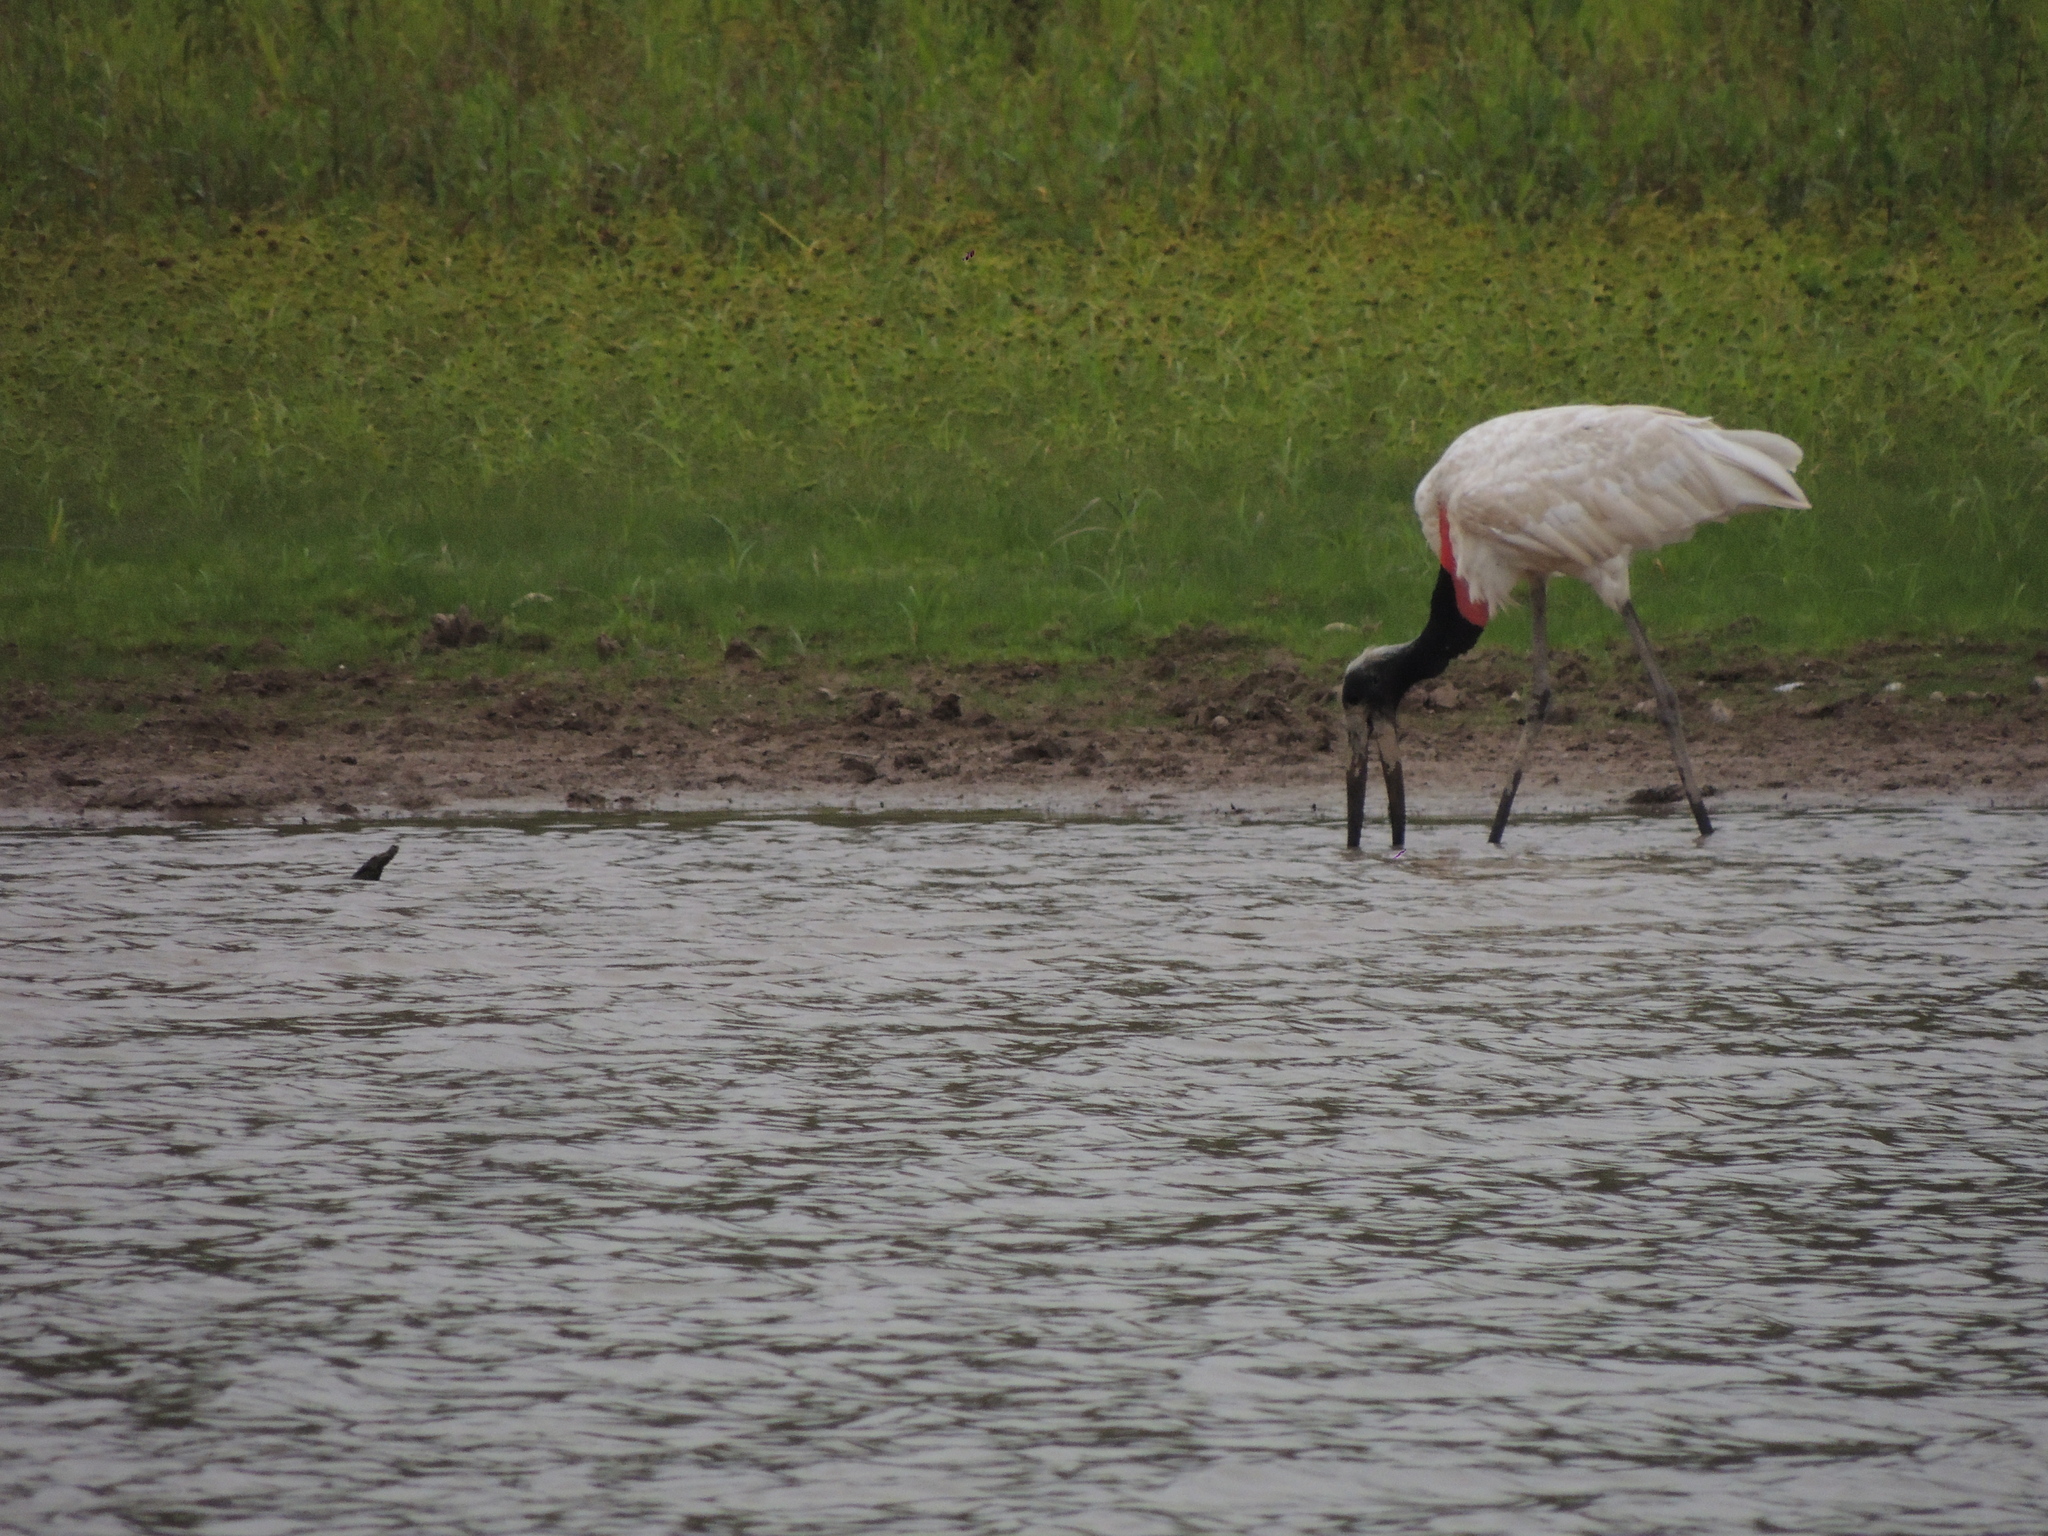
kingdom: Animalia
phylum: Chordata
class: Aves
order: Ciconiiformes
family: Ciconiidae
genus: Jabiru
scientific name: Jabiru mycteria
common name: Jabiru
